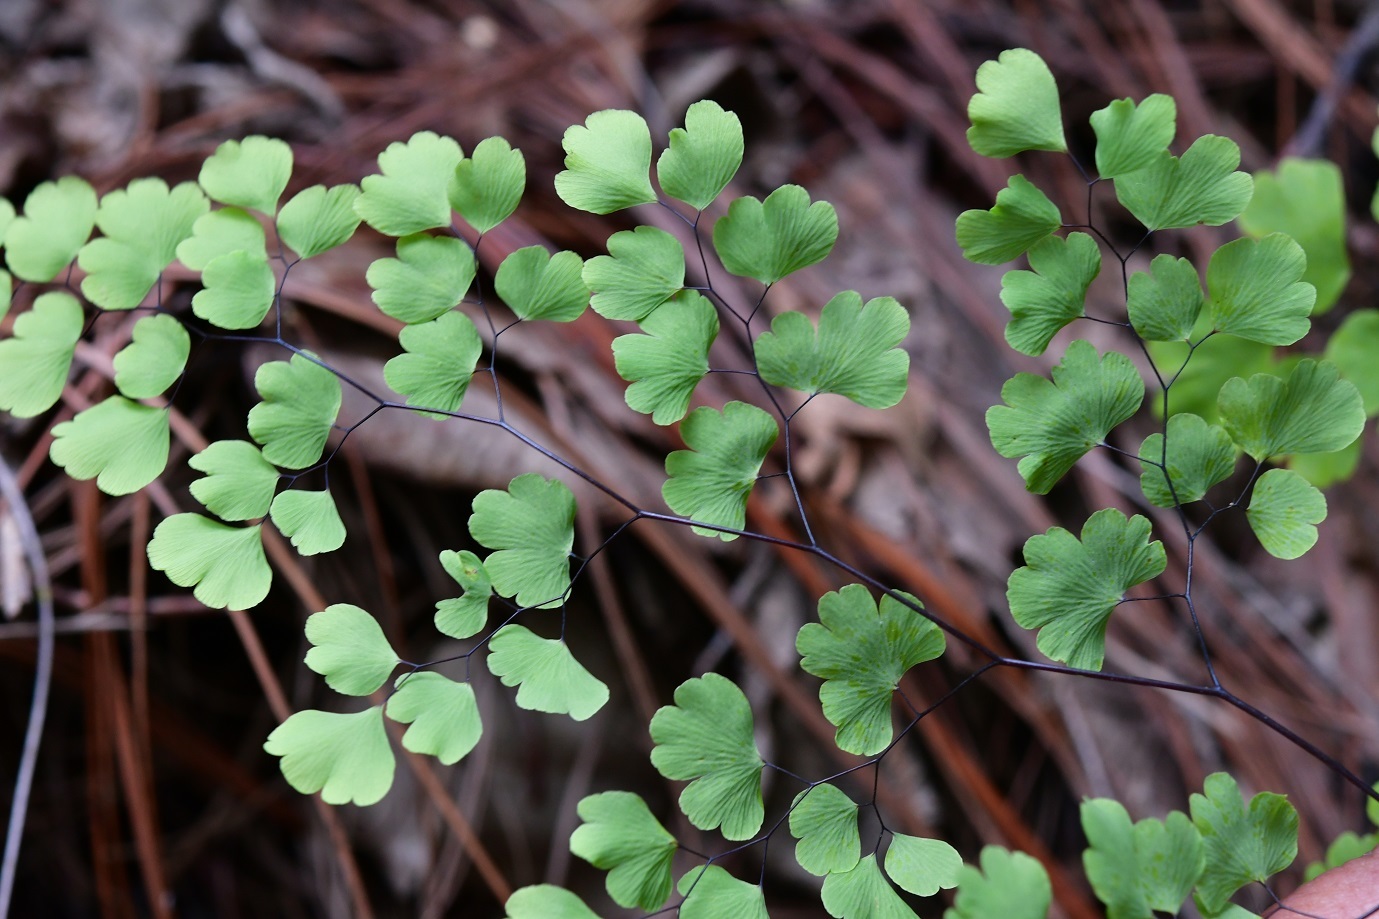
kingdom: Plantae
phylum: Tracheophyta
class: Polypodiopsida
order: Polypodiales
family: Pteridaceae
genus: Adiantum
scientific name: Adiantum poiretii
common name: Mexican maidenhair
